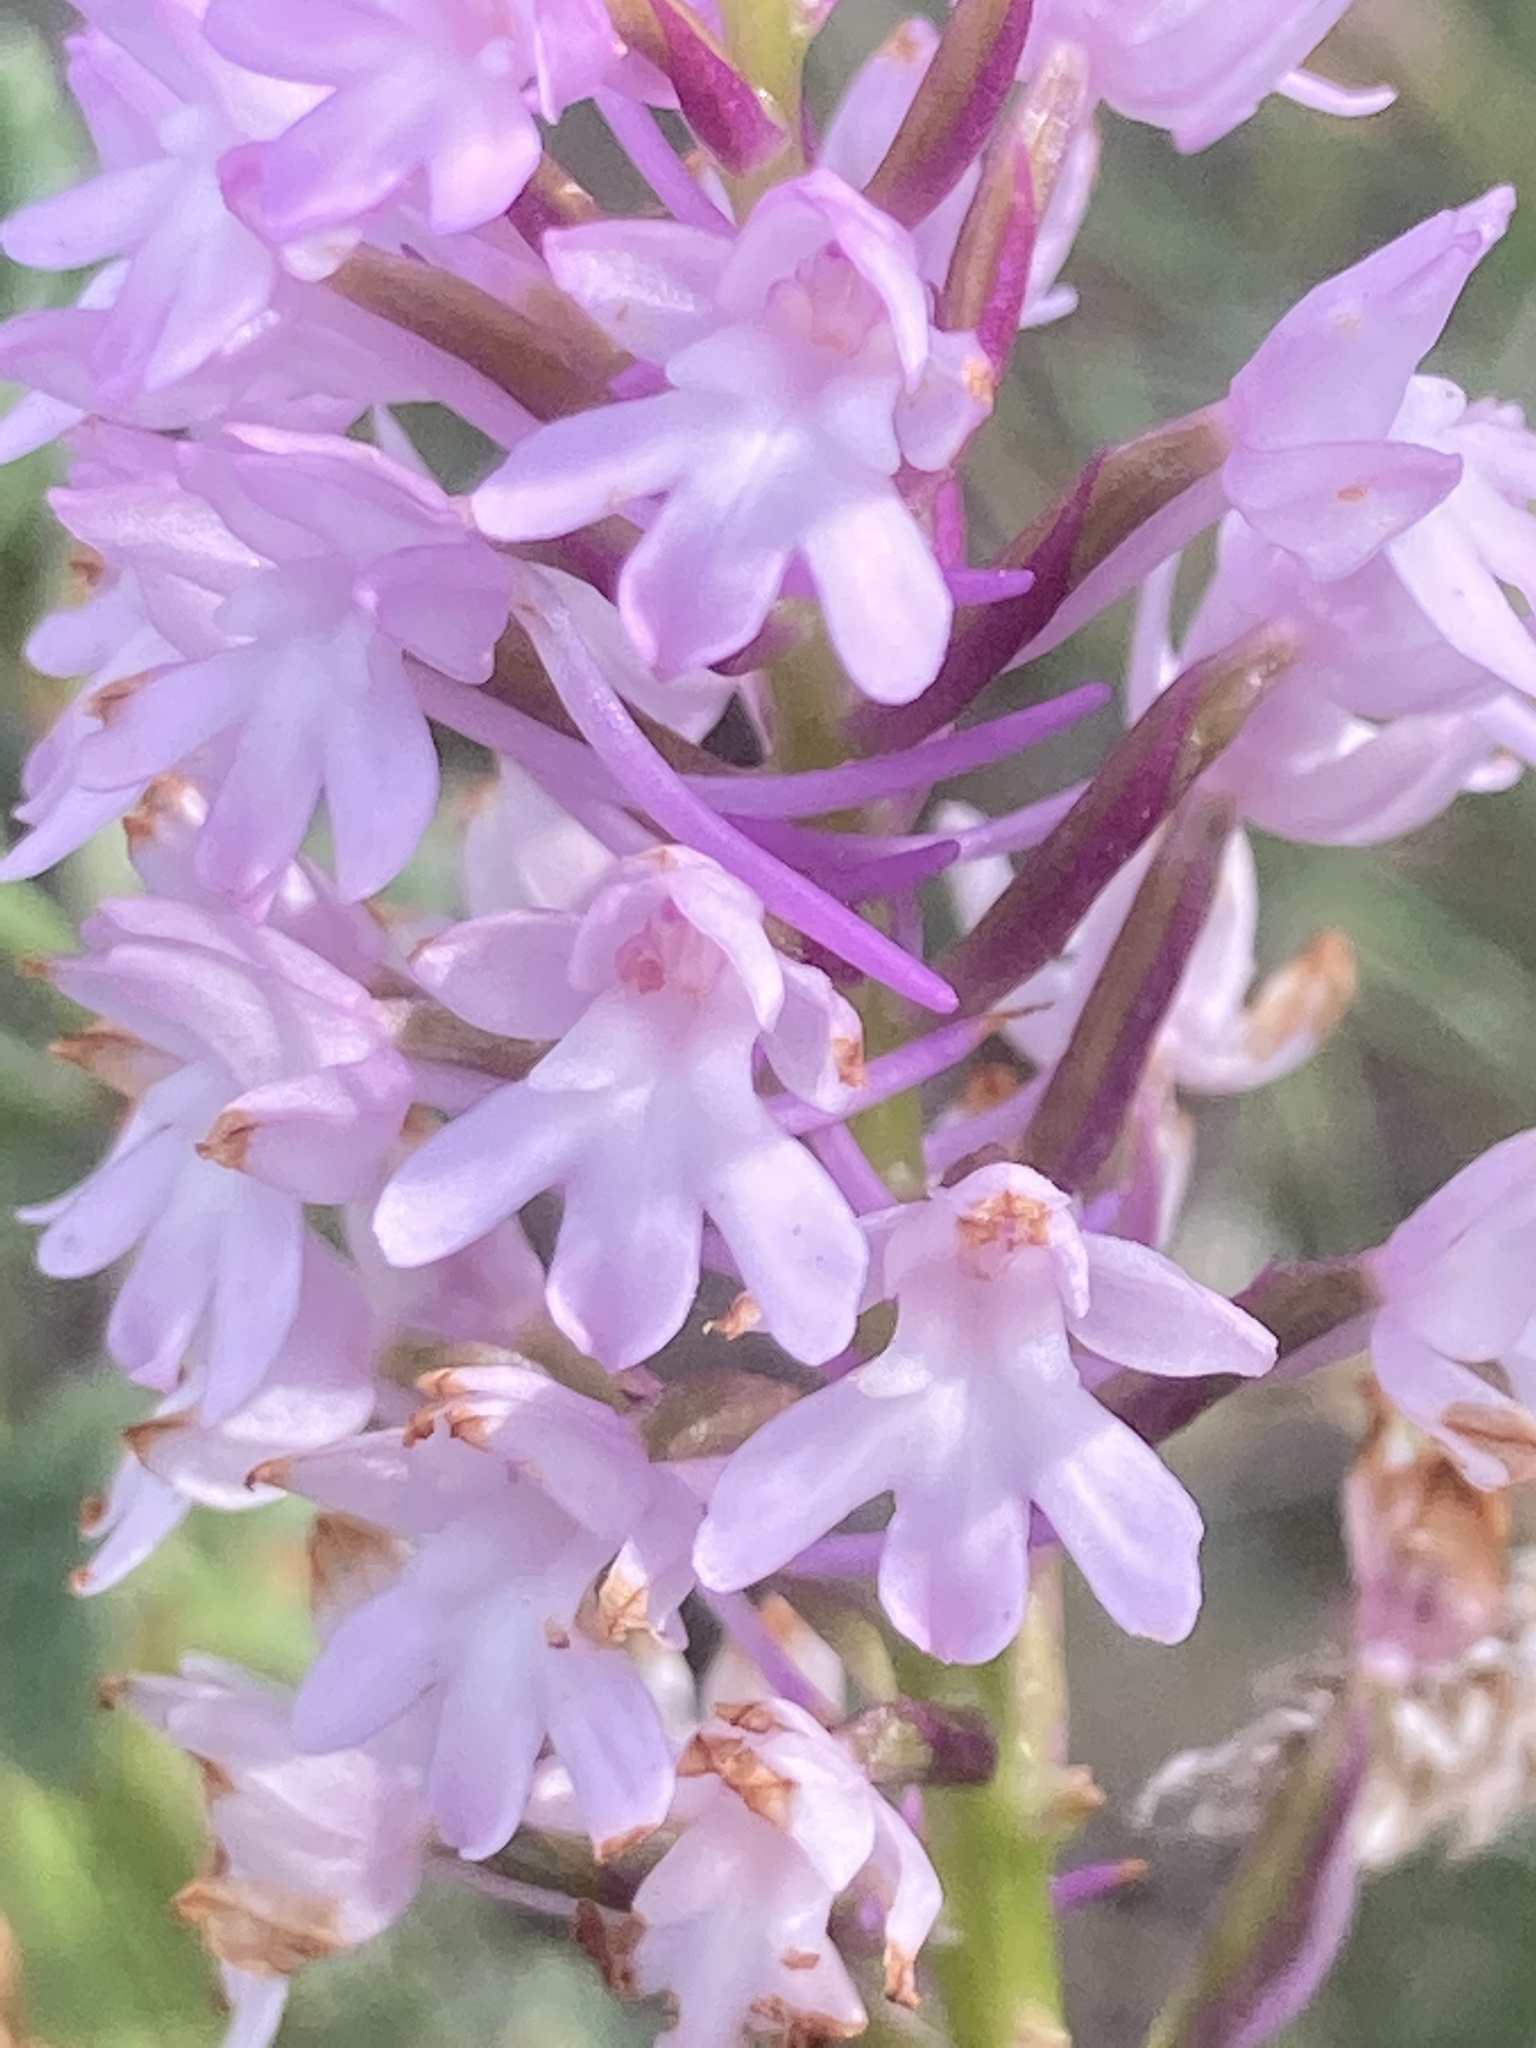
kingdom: Plantae
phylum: Tracheophyta
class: Liliopsida
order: Asparagales
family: Orchidaceae
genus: Anacamptis
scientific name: Anacamptis pyramidalis
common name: Pyramidal orchid
